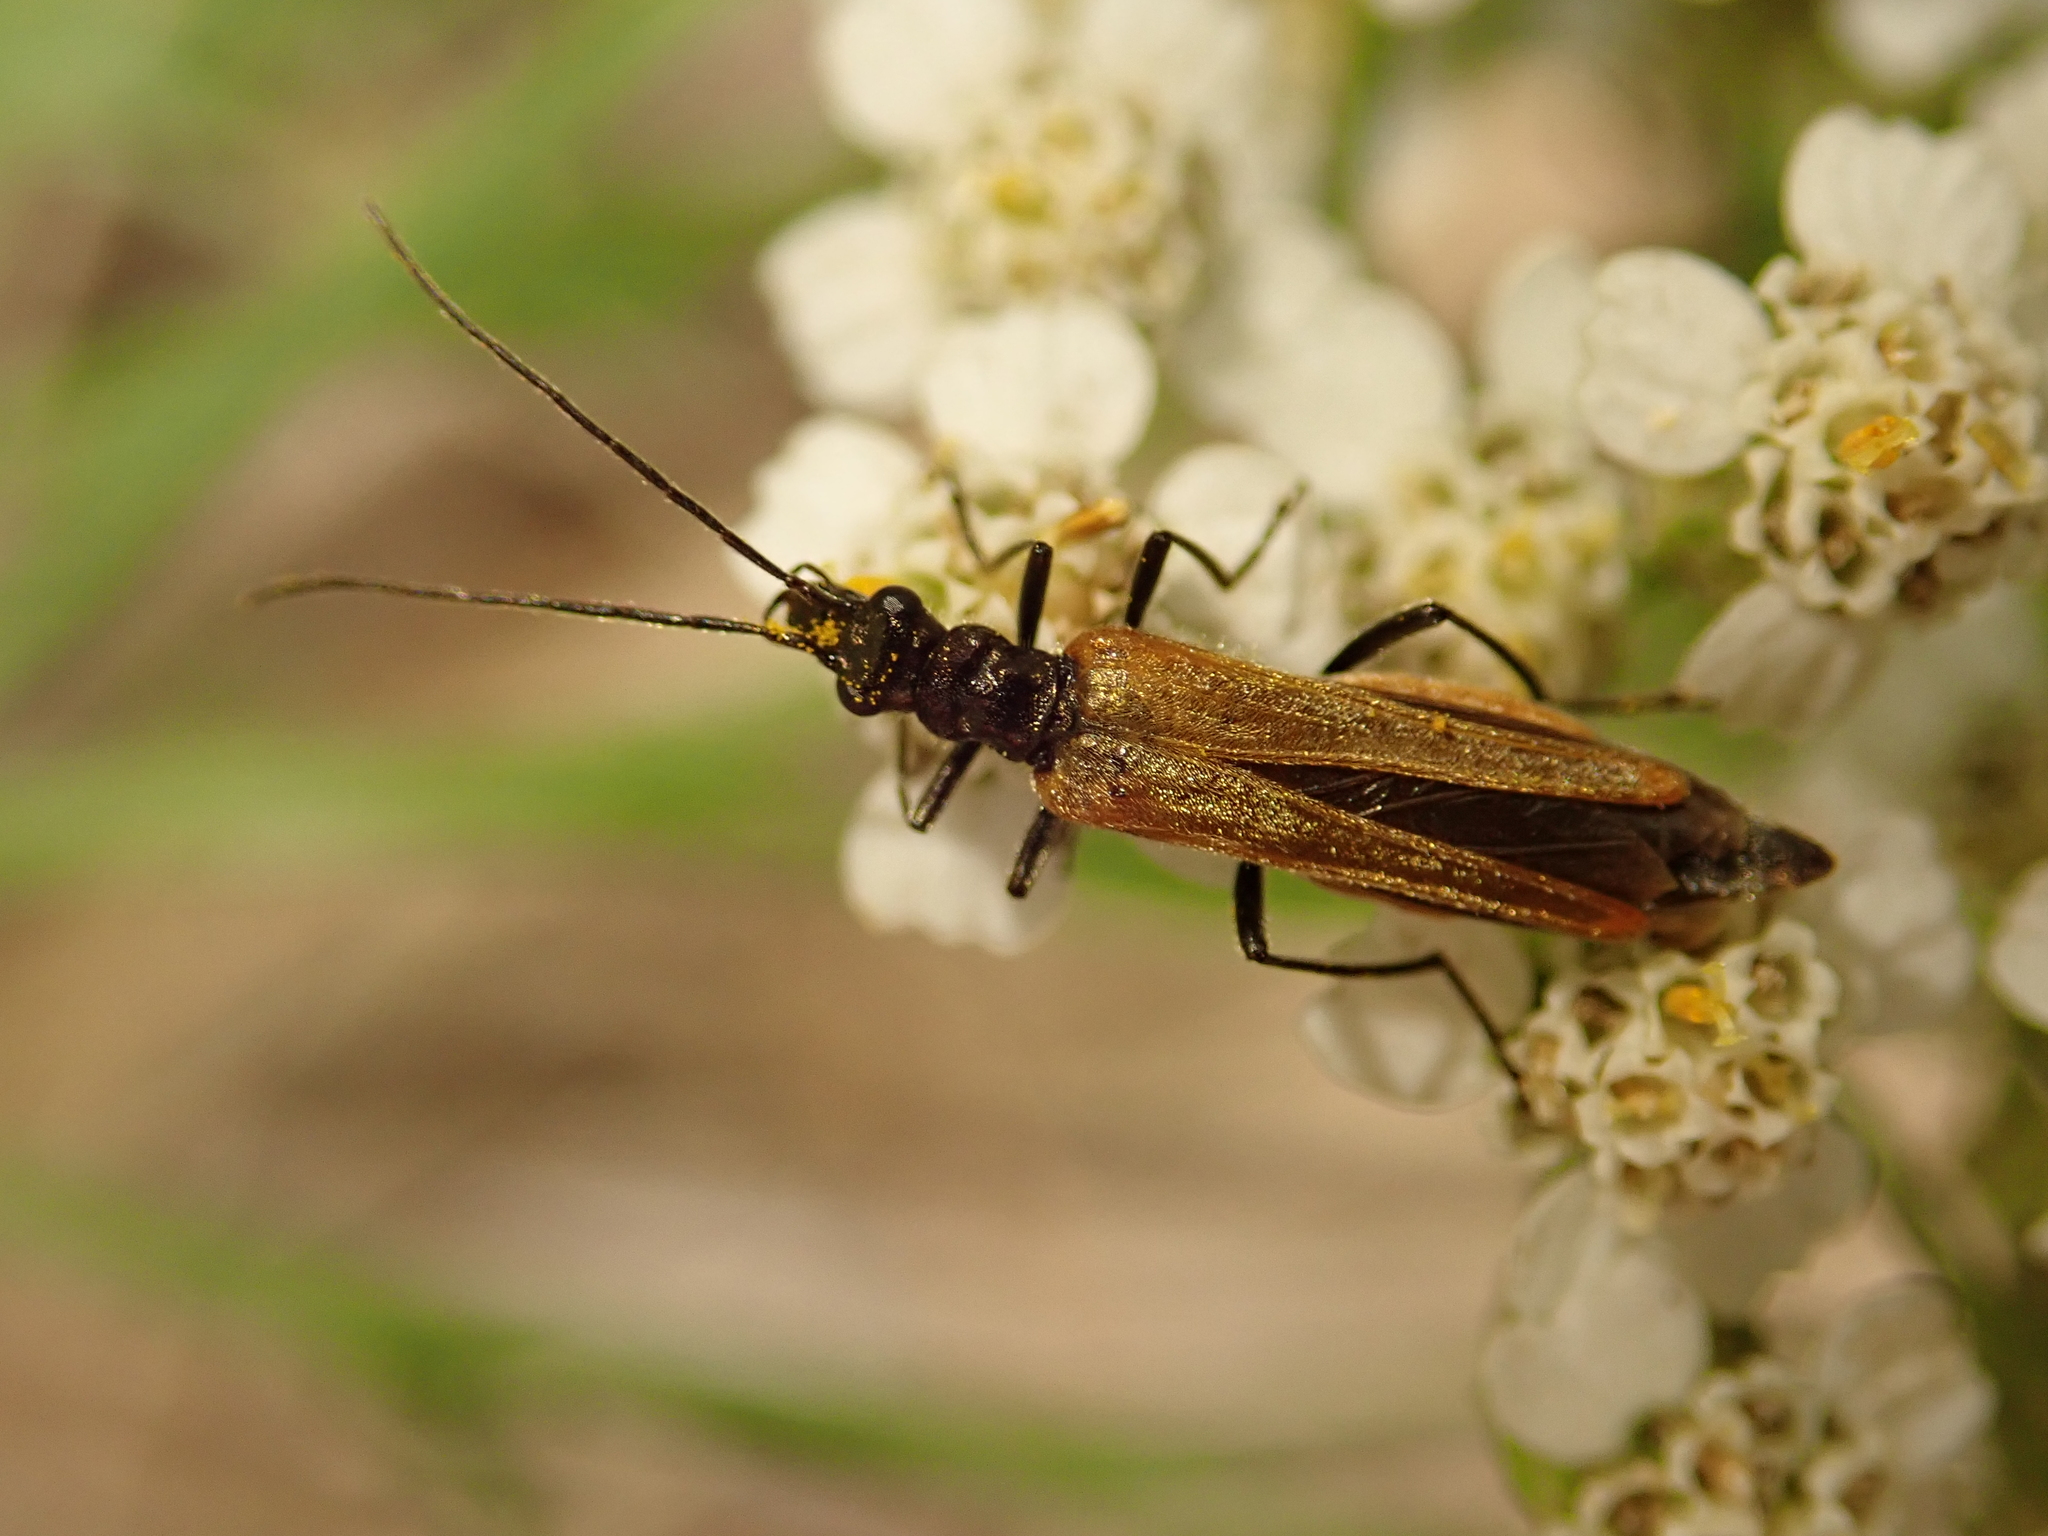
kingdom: Animalia
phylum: Arthropoda
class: Insecta
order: Coleoptera
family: Oedemeridae
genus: Oedemera
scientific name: Oedemera femorata
